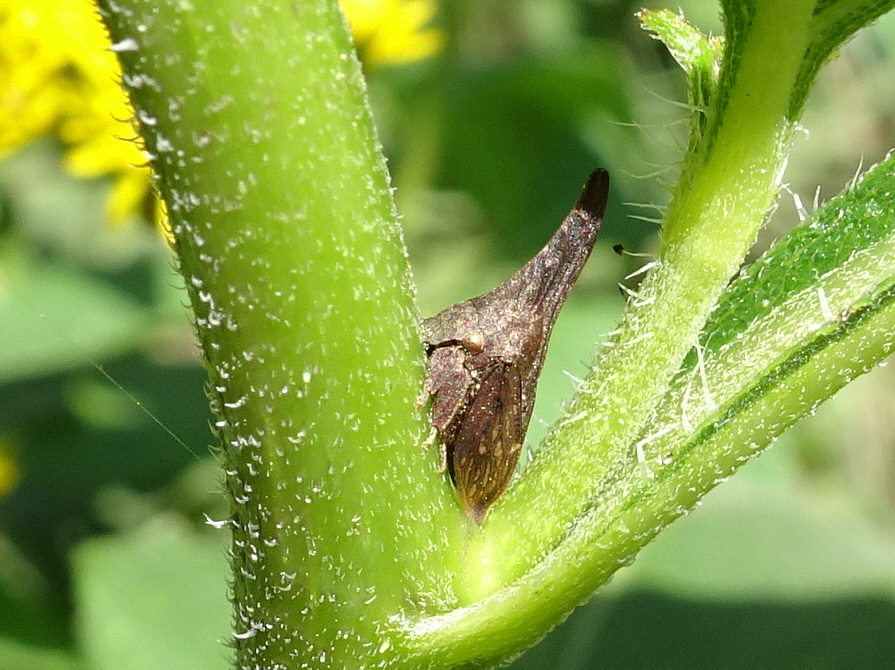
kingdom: Animalia
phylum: Arthropoda
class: Insecta
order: Hemiptera
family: Membracidae
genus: Enchenopa
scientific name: Enchenopa latipes
